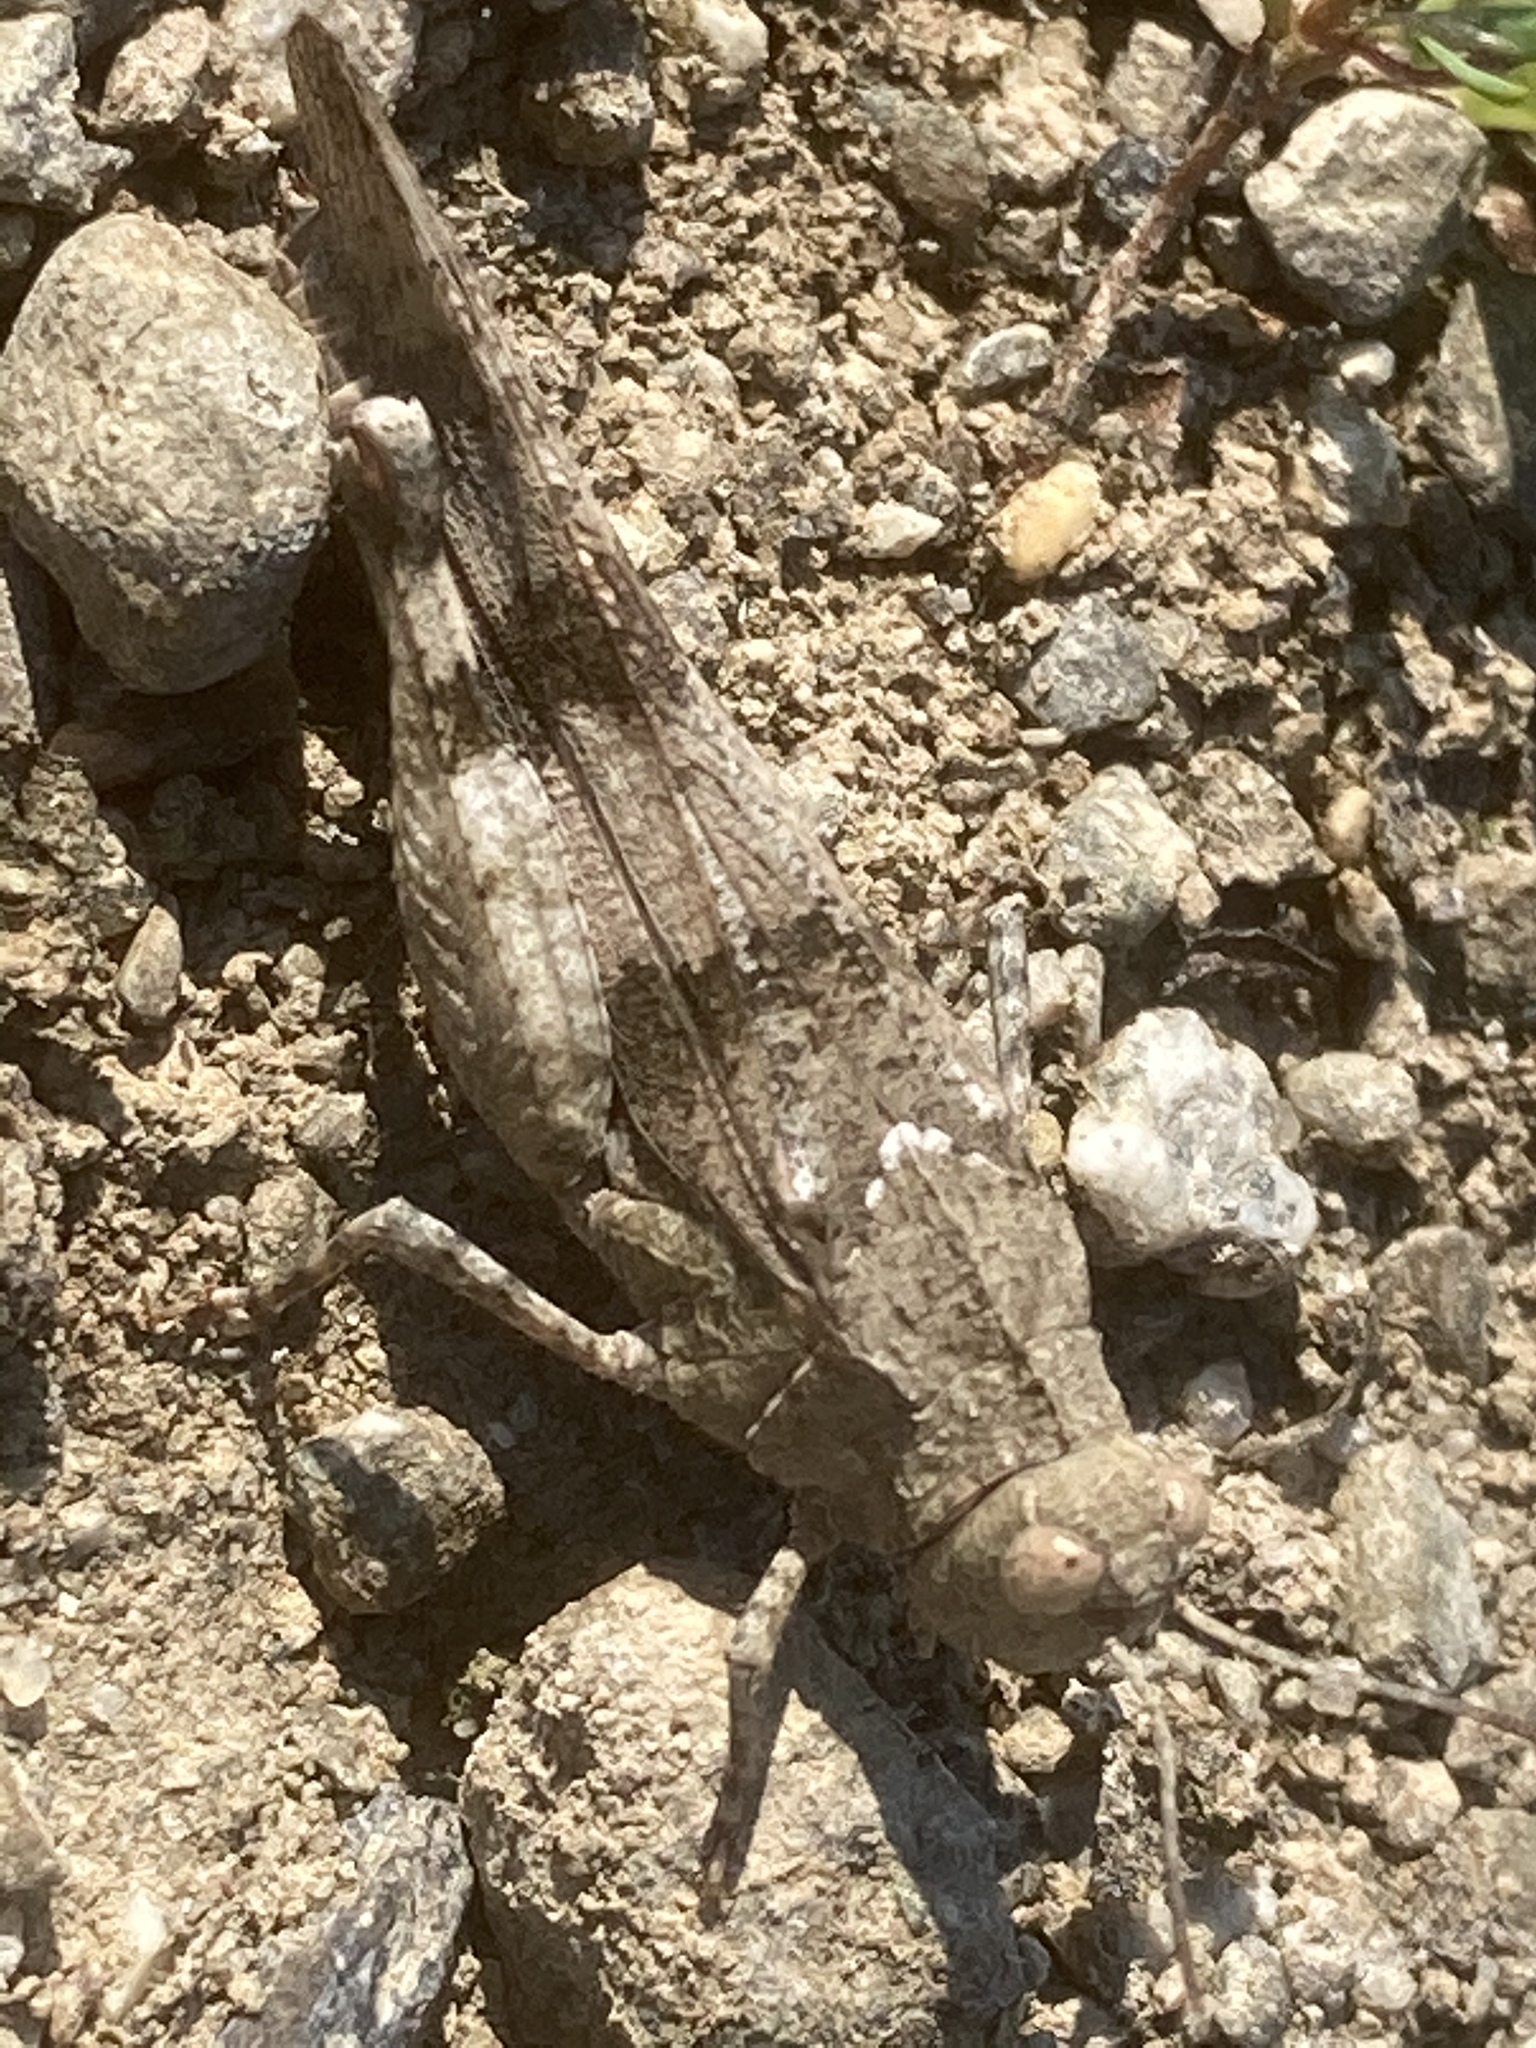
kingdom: Animalia
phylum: Arthropoda
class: Insecta
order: Orthoptera
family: Acrididae
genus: Oedipoda
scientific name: Oedipoda caerulescens
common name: Blue-winged grasshopper
